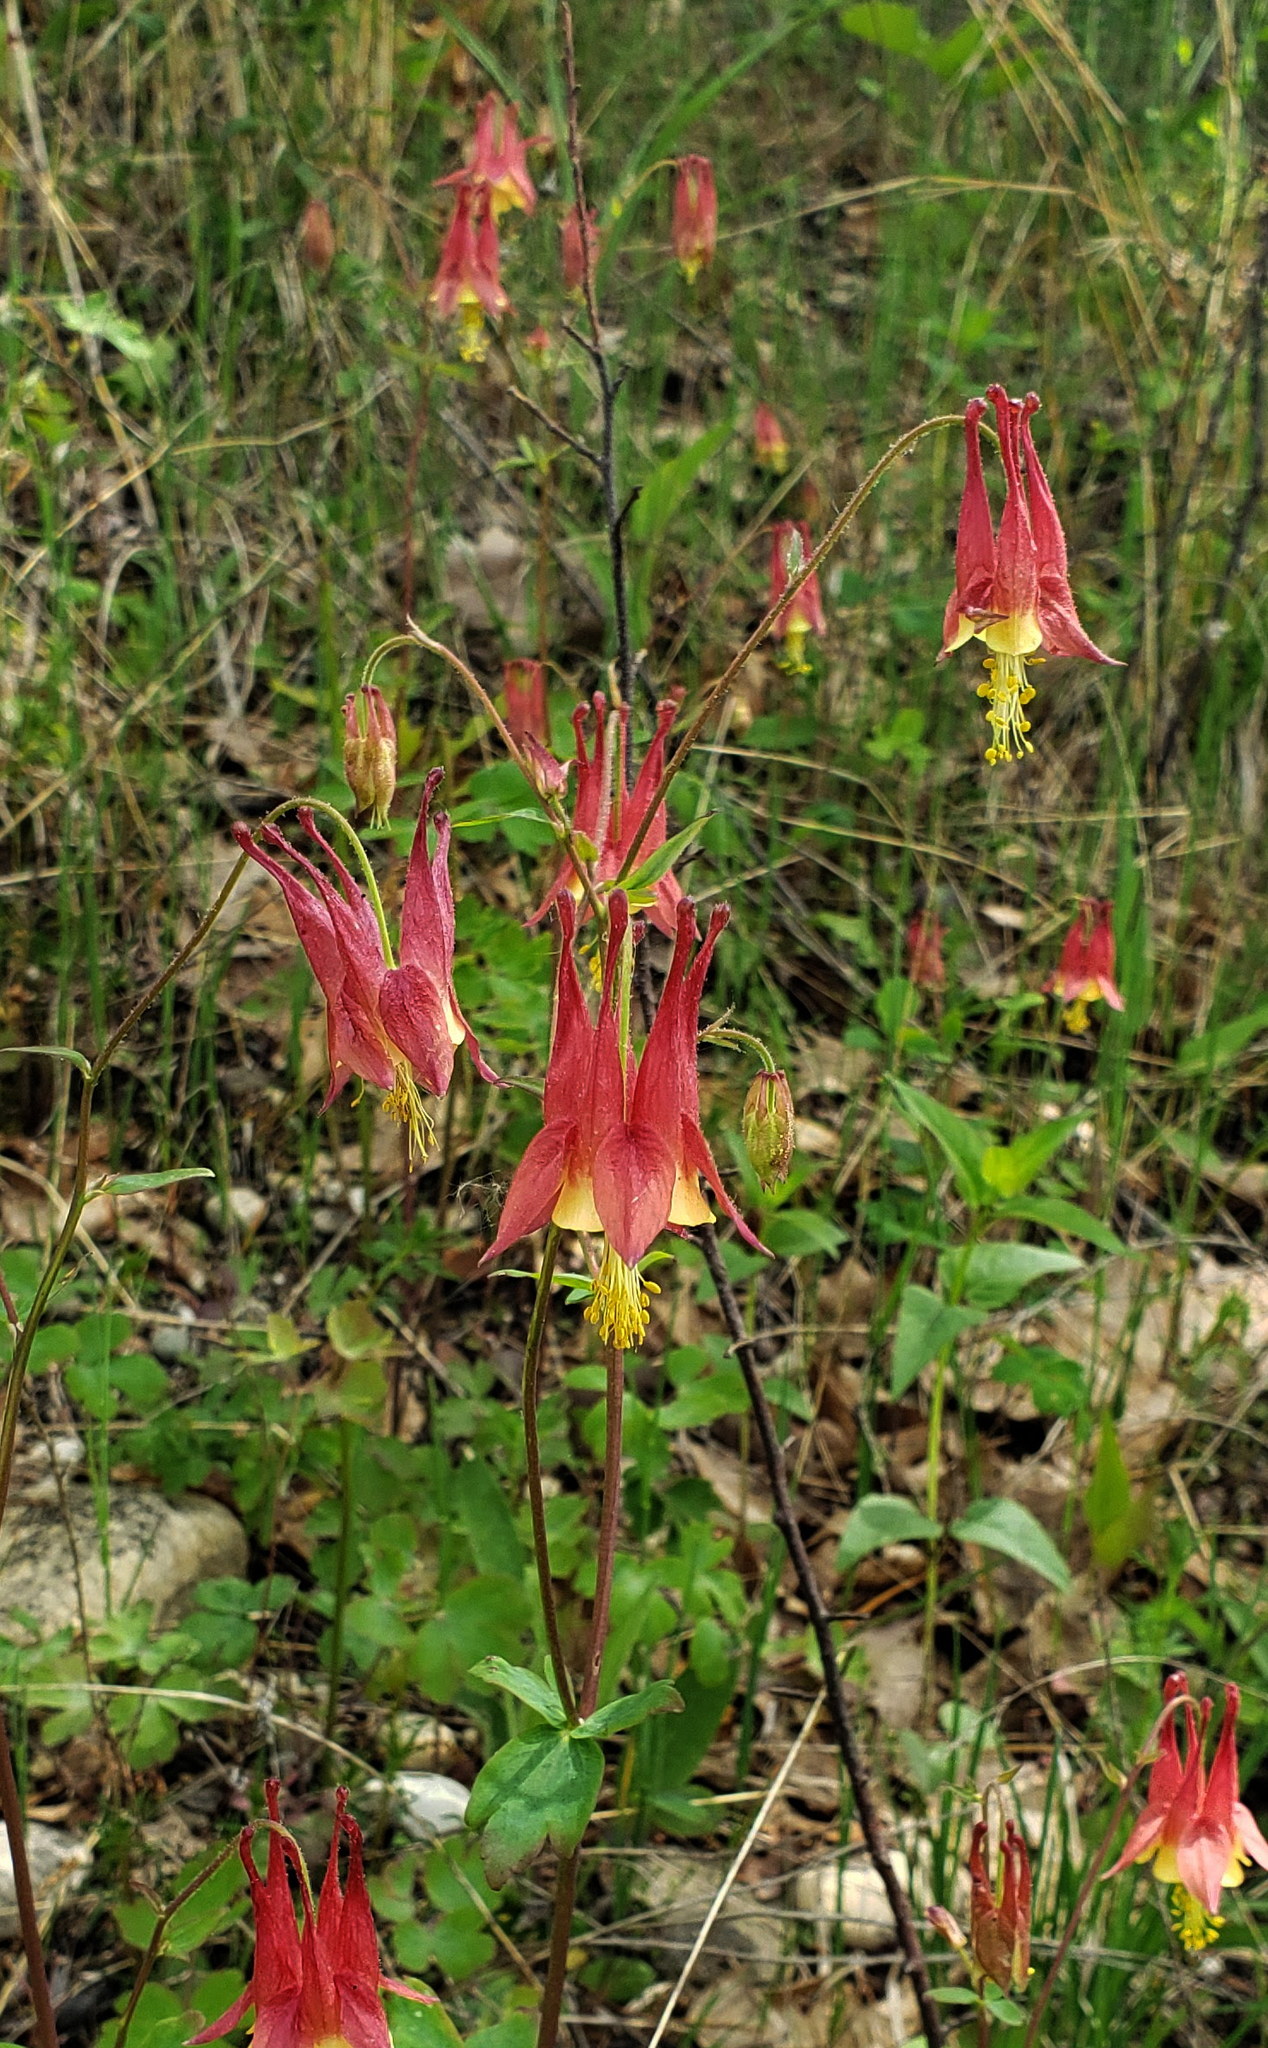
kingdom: Plantae
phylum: Tracheophyta
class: Magnoliopsida
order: Ranunculales
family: Ranunculaceae
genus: Aquilegia
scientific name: Aquilegia canadensis
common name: American columbine
